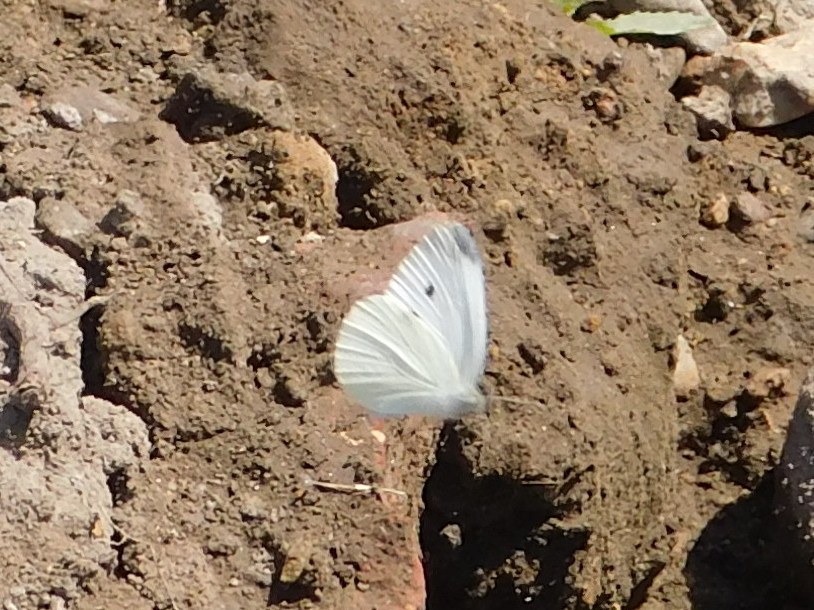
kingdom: Animalia
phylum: Arthropoda
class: Insecta
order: Lepidoptera
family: Pieridae
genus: Pieris
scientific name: Pieris rapae
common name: Small white
